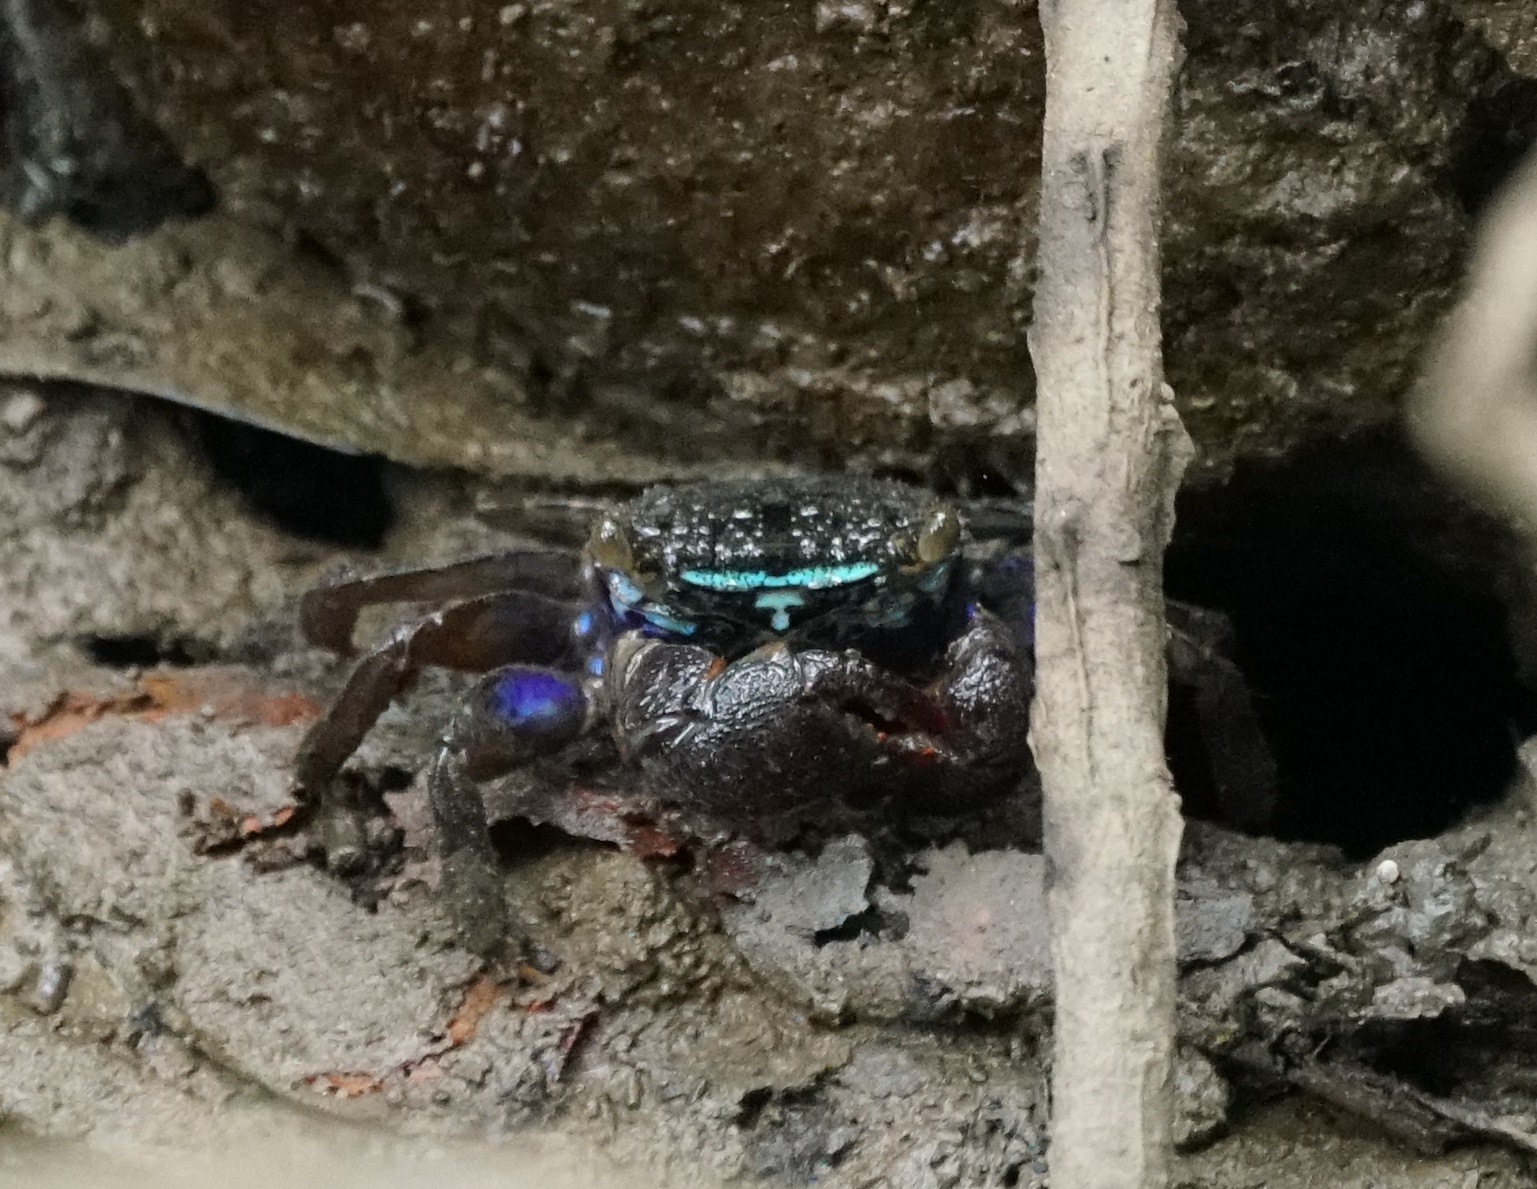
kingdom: Animalia
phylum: Arthropoda
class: Malacostraca
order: Decapoda
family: Sesarmidae
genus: Parasesarma
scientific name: Parasesarma indiarum
